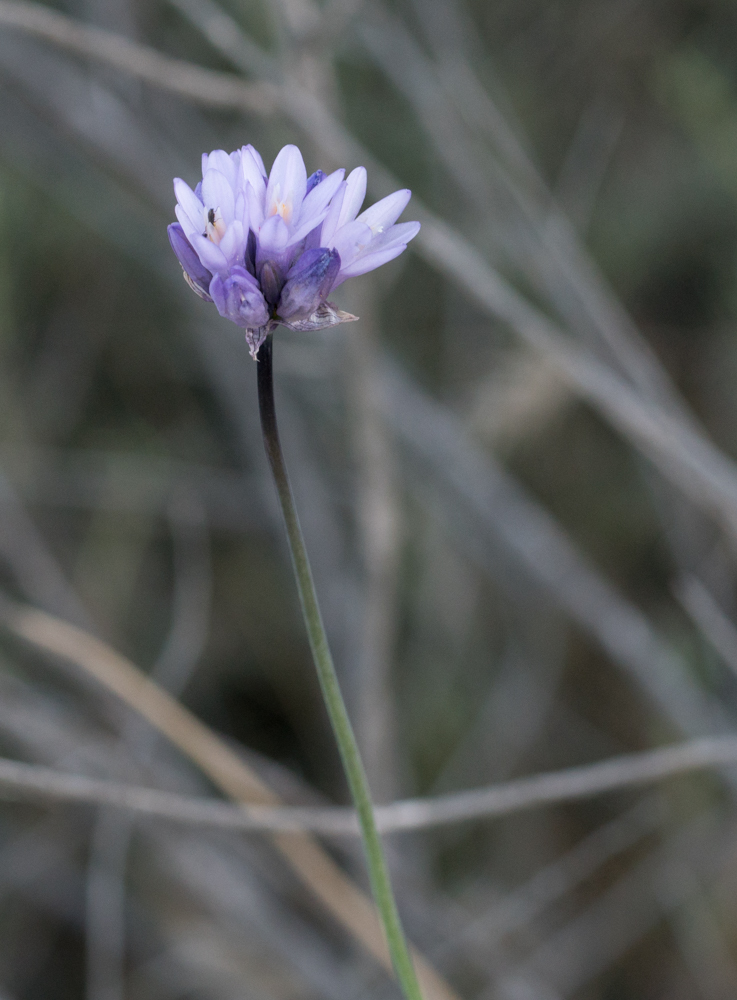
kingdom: Plantae
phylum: Tracheophyta
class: Liliopsida
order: Asparagales
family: Asparagaceae
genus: Dipterostemon
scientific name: Dipterostemon capitatus
